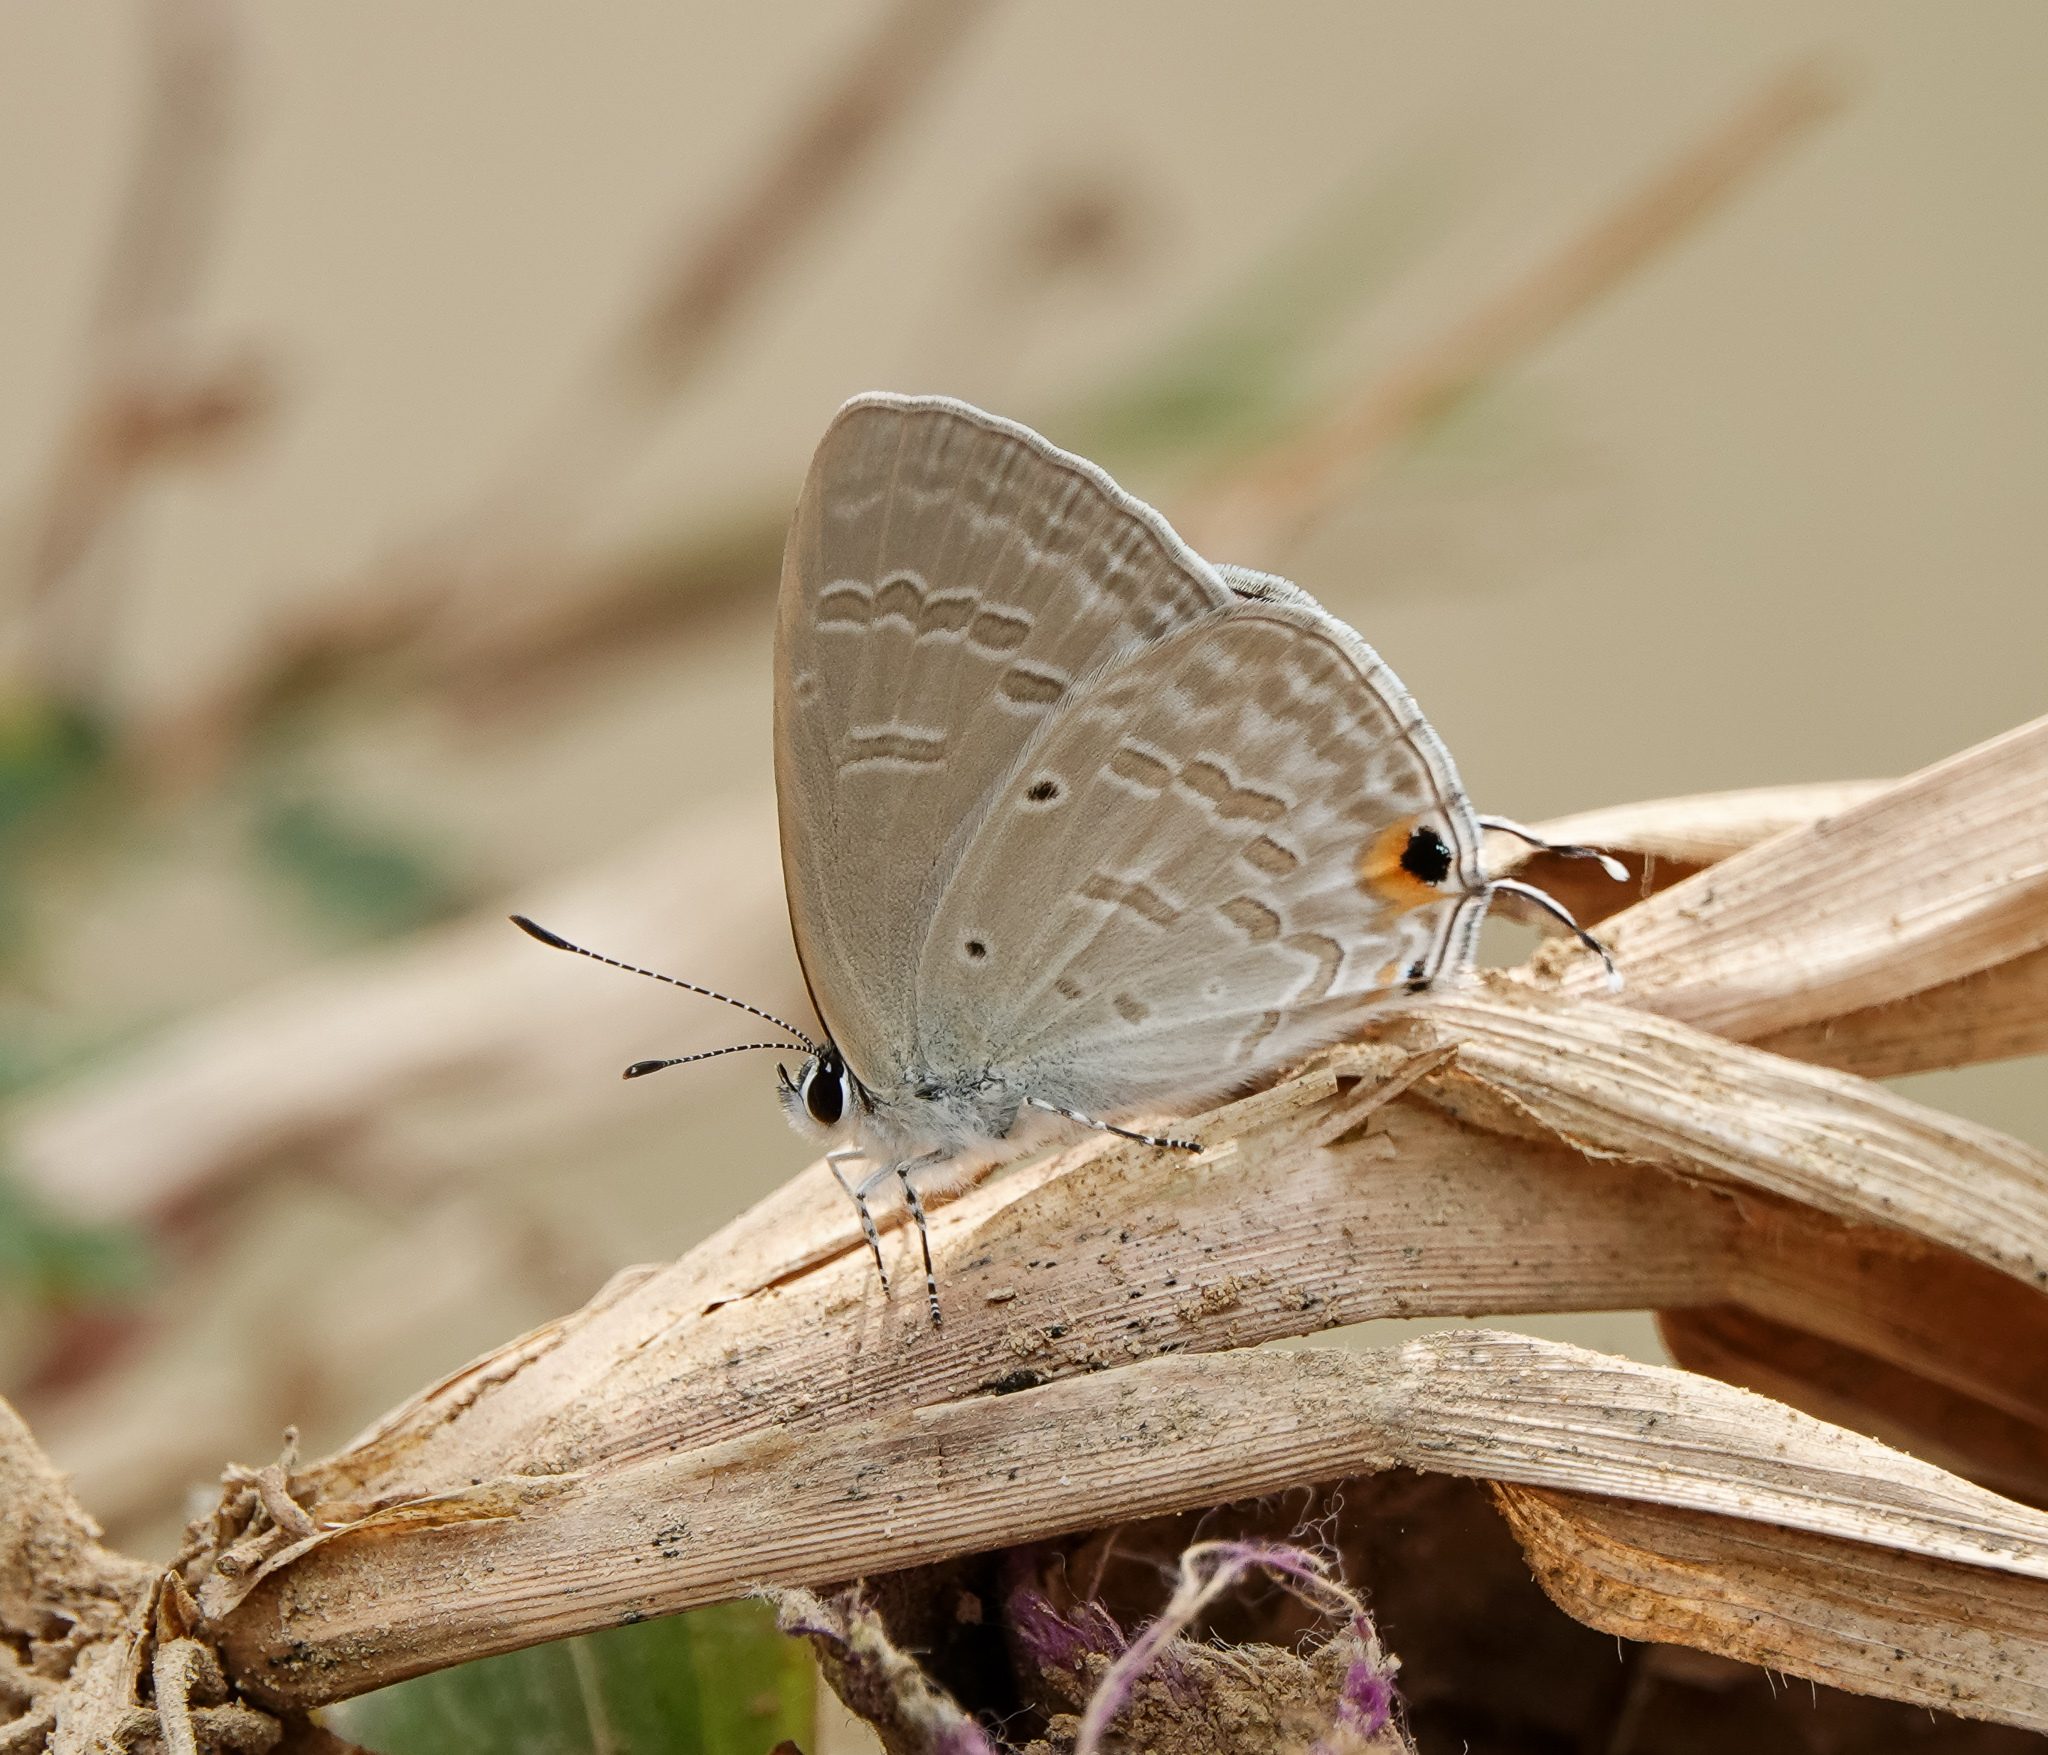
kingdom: Animalia
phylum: Arthropoda
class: Insecta
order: Lepidoptera
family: Lycaenidae
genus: Catochrysops
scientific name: Catochrysops strabo
